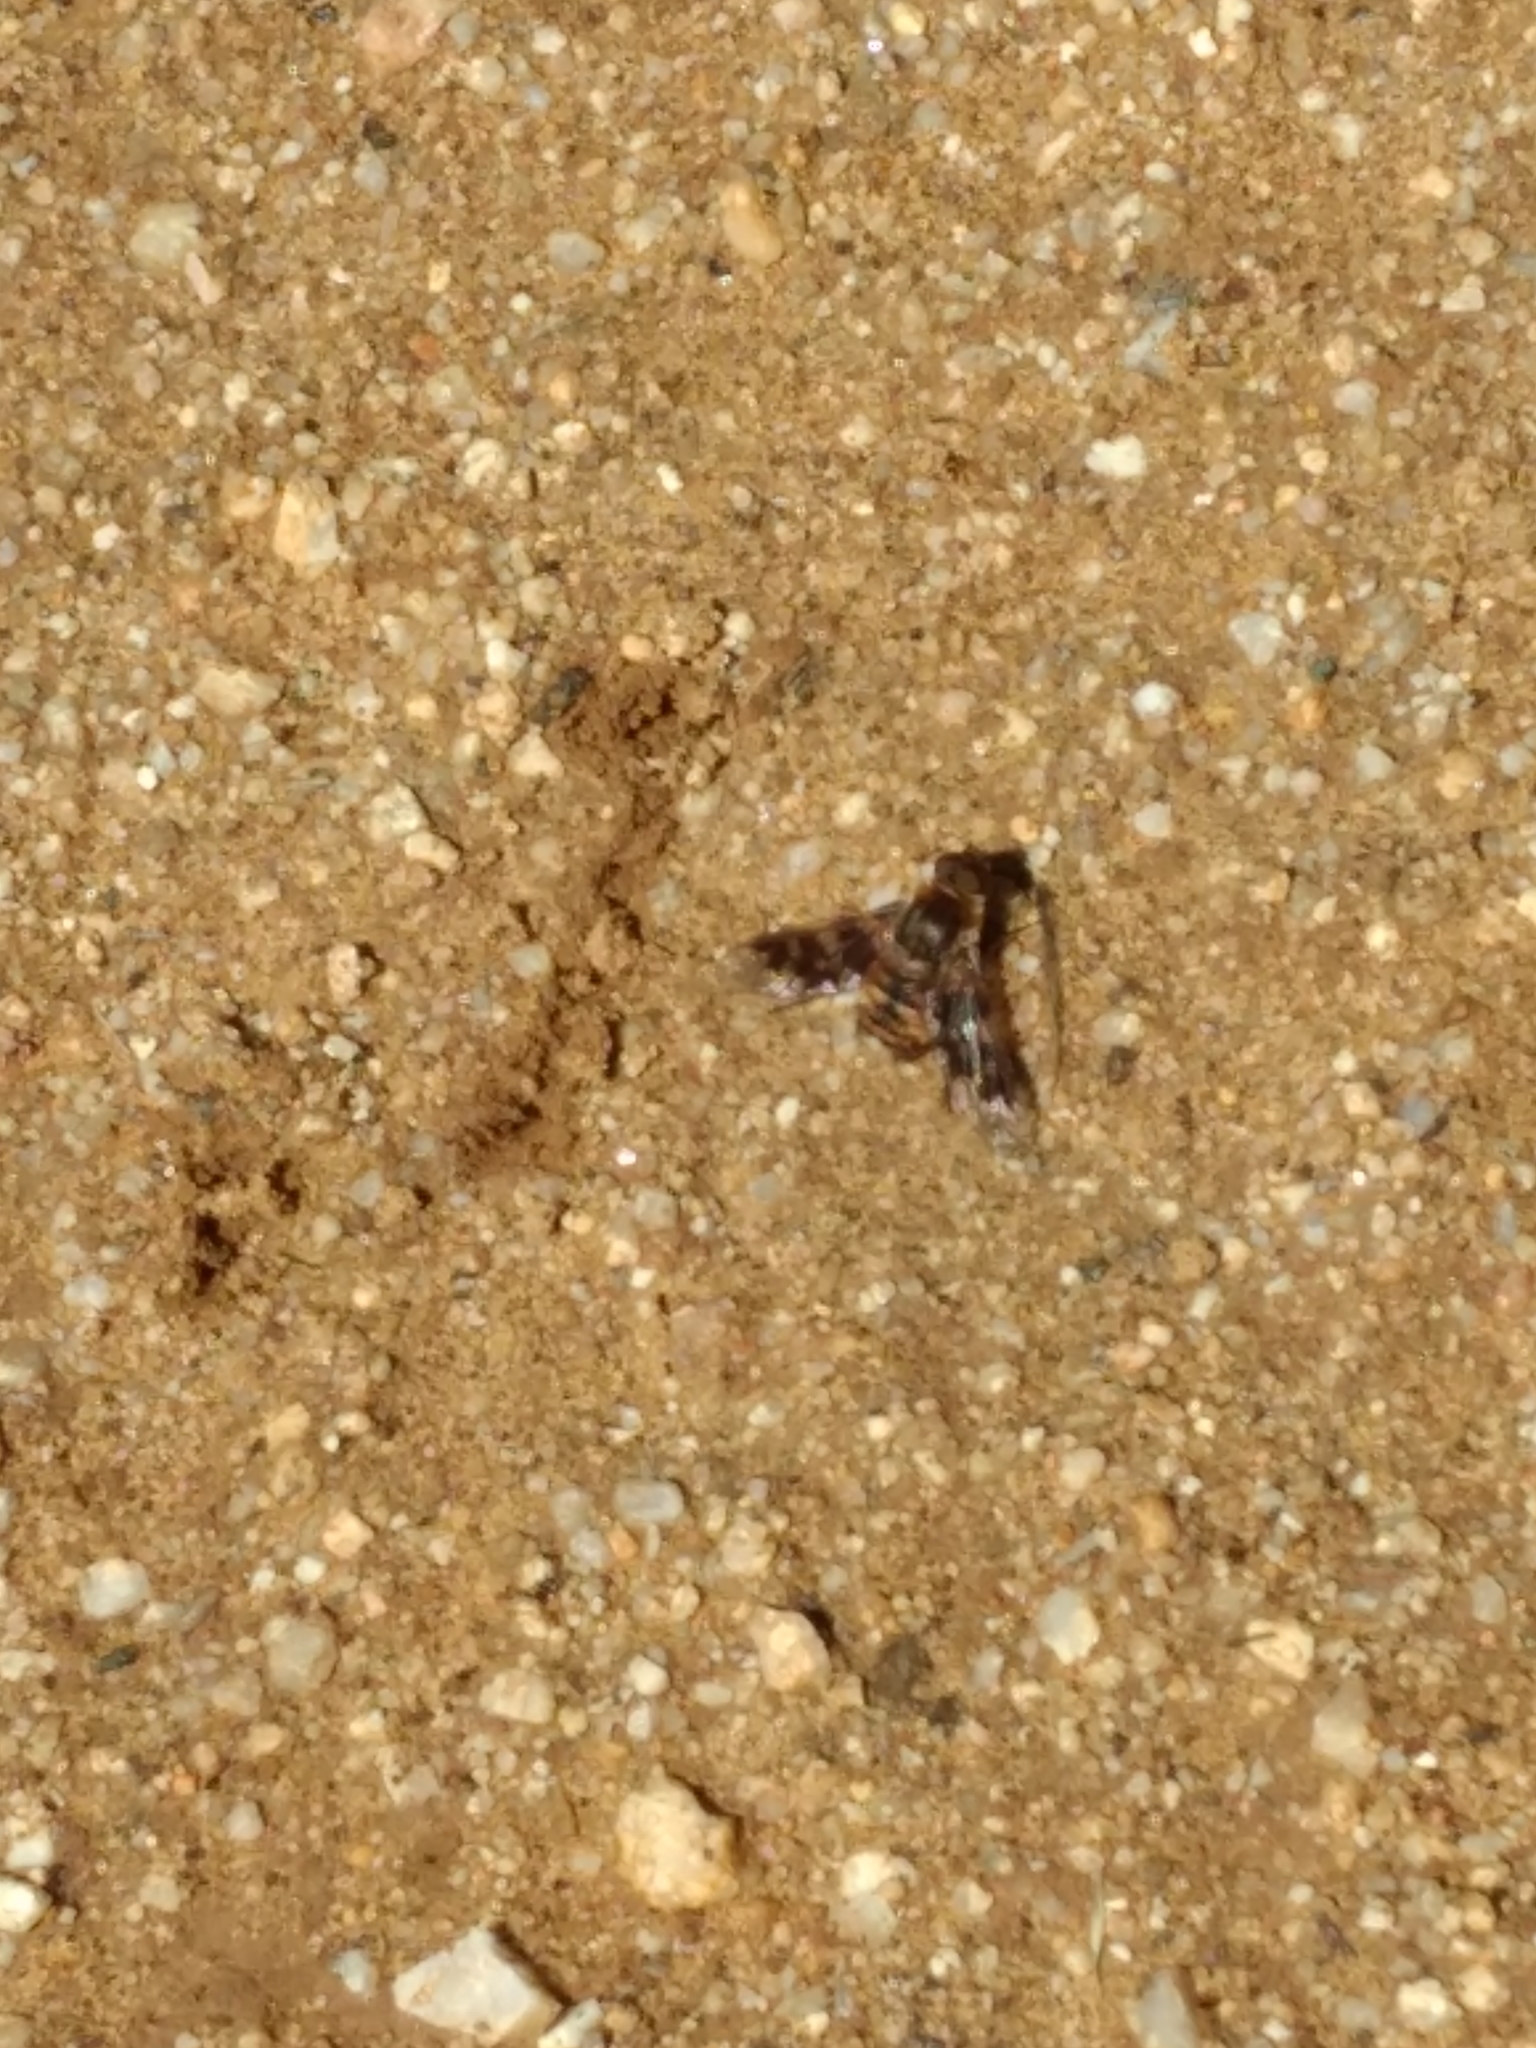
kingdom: Animalia
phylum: Arthropoda
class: Insecta
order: Diptera
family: Bombyliidae
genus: Thyridanthrax
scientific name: Thyridanthrax nugator
